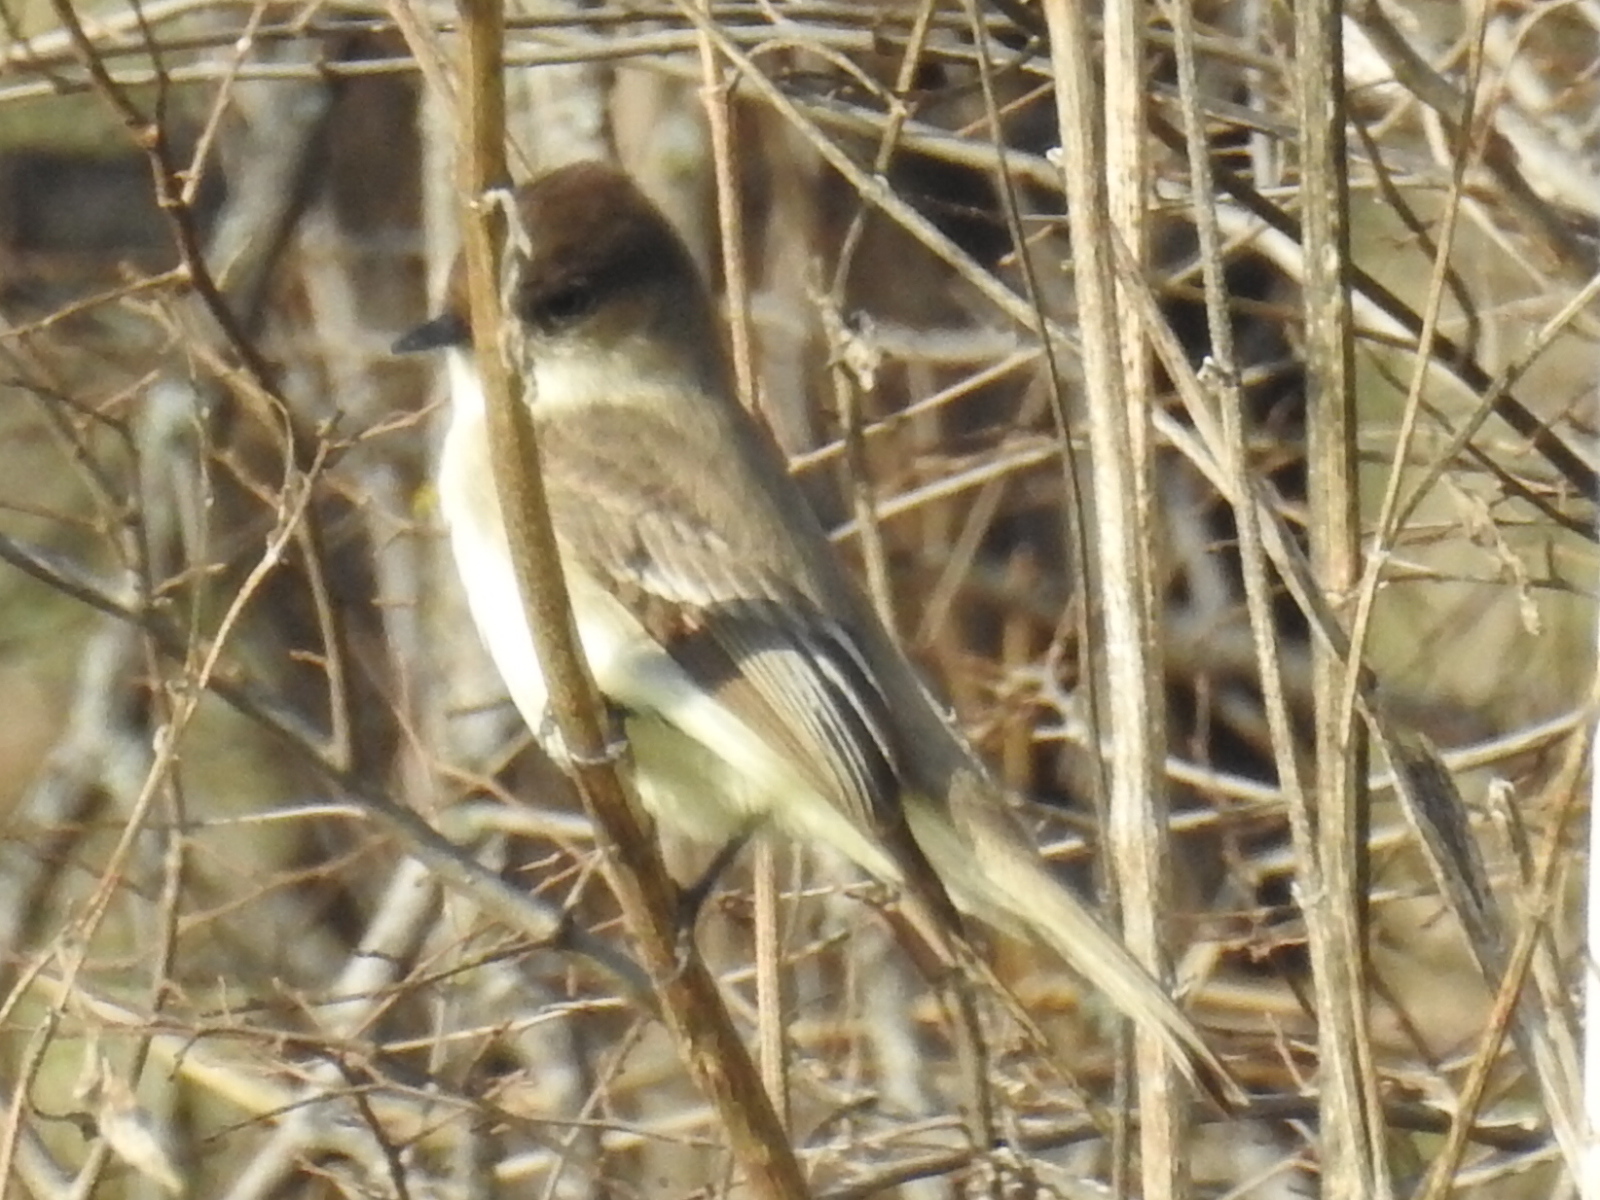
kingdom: Animalia
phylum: Chordata
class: Aves
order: Passeriformes
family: Tyrannidae
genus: Sayornis
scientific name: Sayornis phoebe
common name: Eastern phoebe
